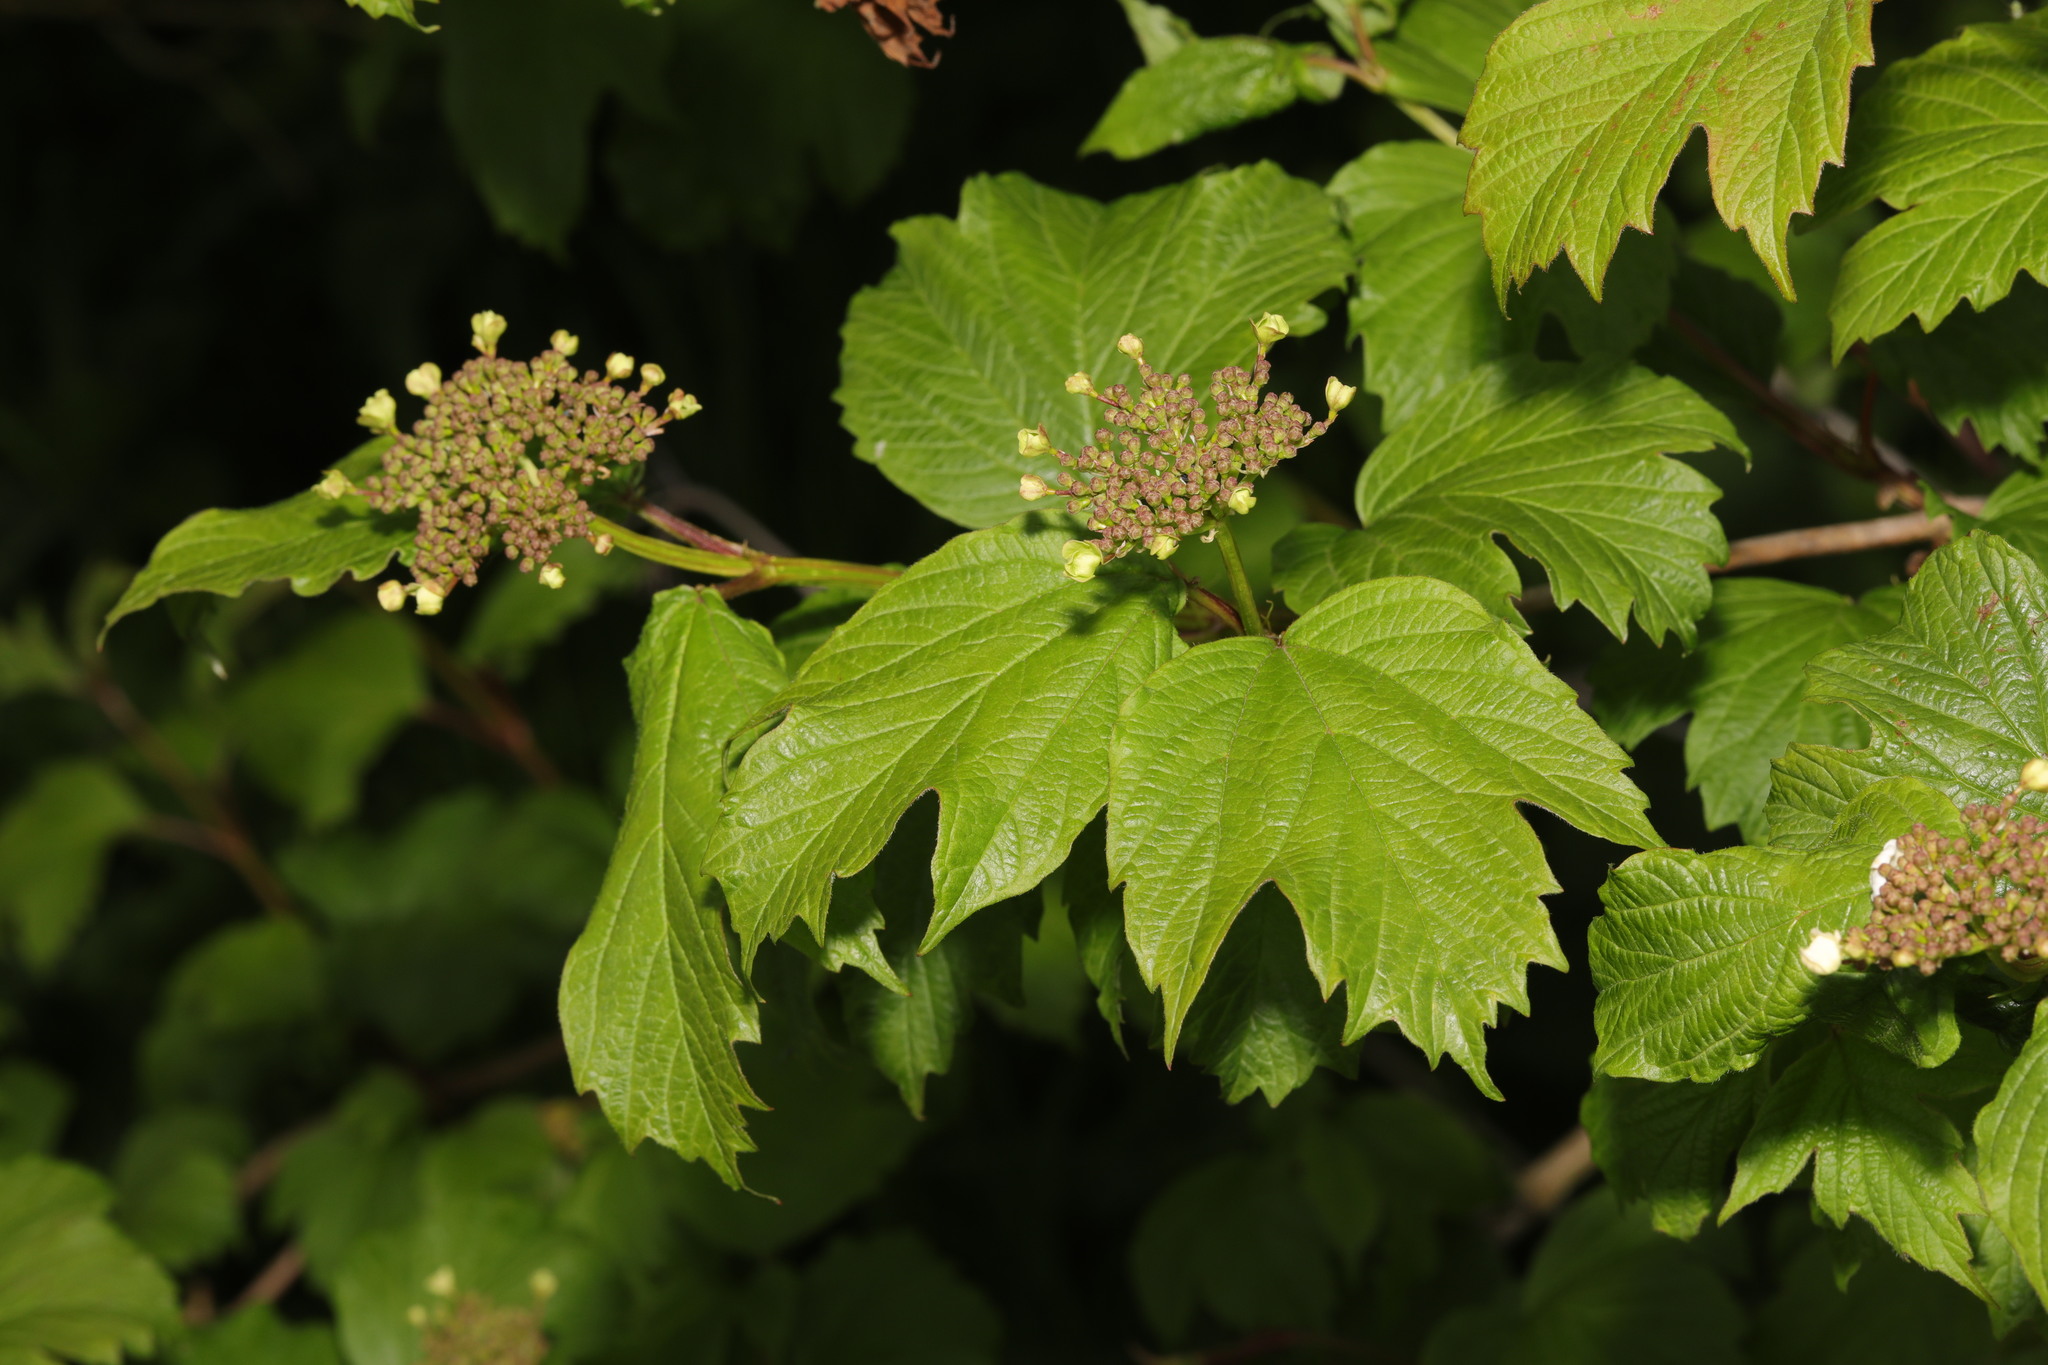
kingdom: Plantae
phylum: Tracheophyta
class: Magnoliopsida
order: Dipsacales
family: Viburnaceae
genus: Viburnum
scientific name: Viburnum opulus
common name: Guelder-rose
